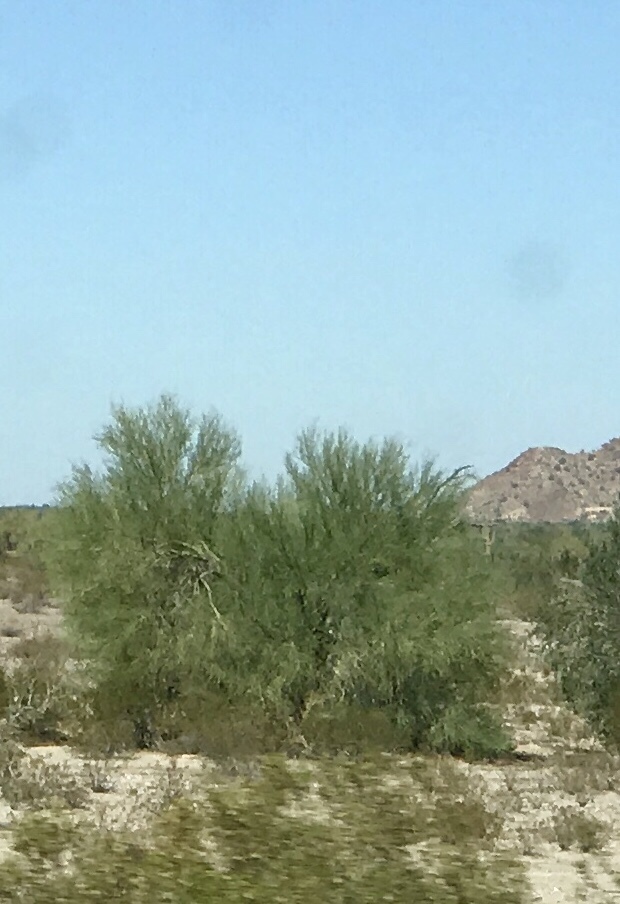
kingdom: Plantae
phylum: Tracheophyta
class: Magnoliopsida
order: Fabales
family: Fabaceae
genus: Parkinsonia
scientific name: Parkinsonia florida
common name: Blue paloverde
